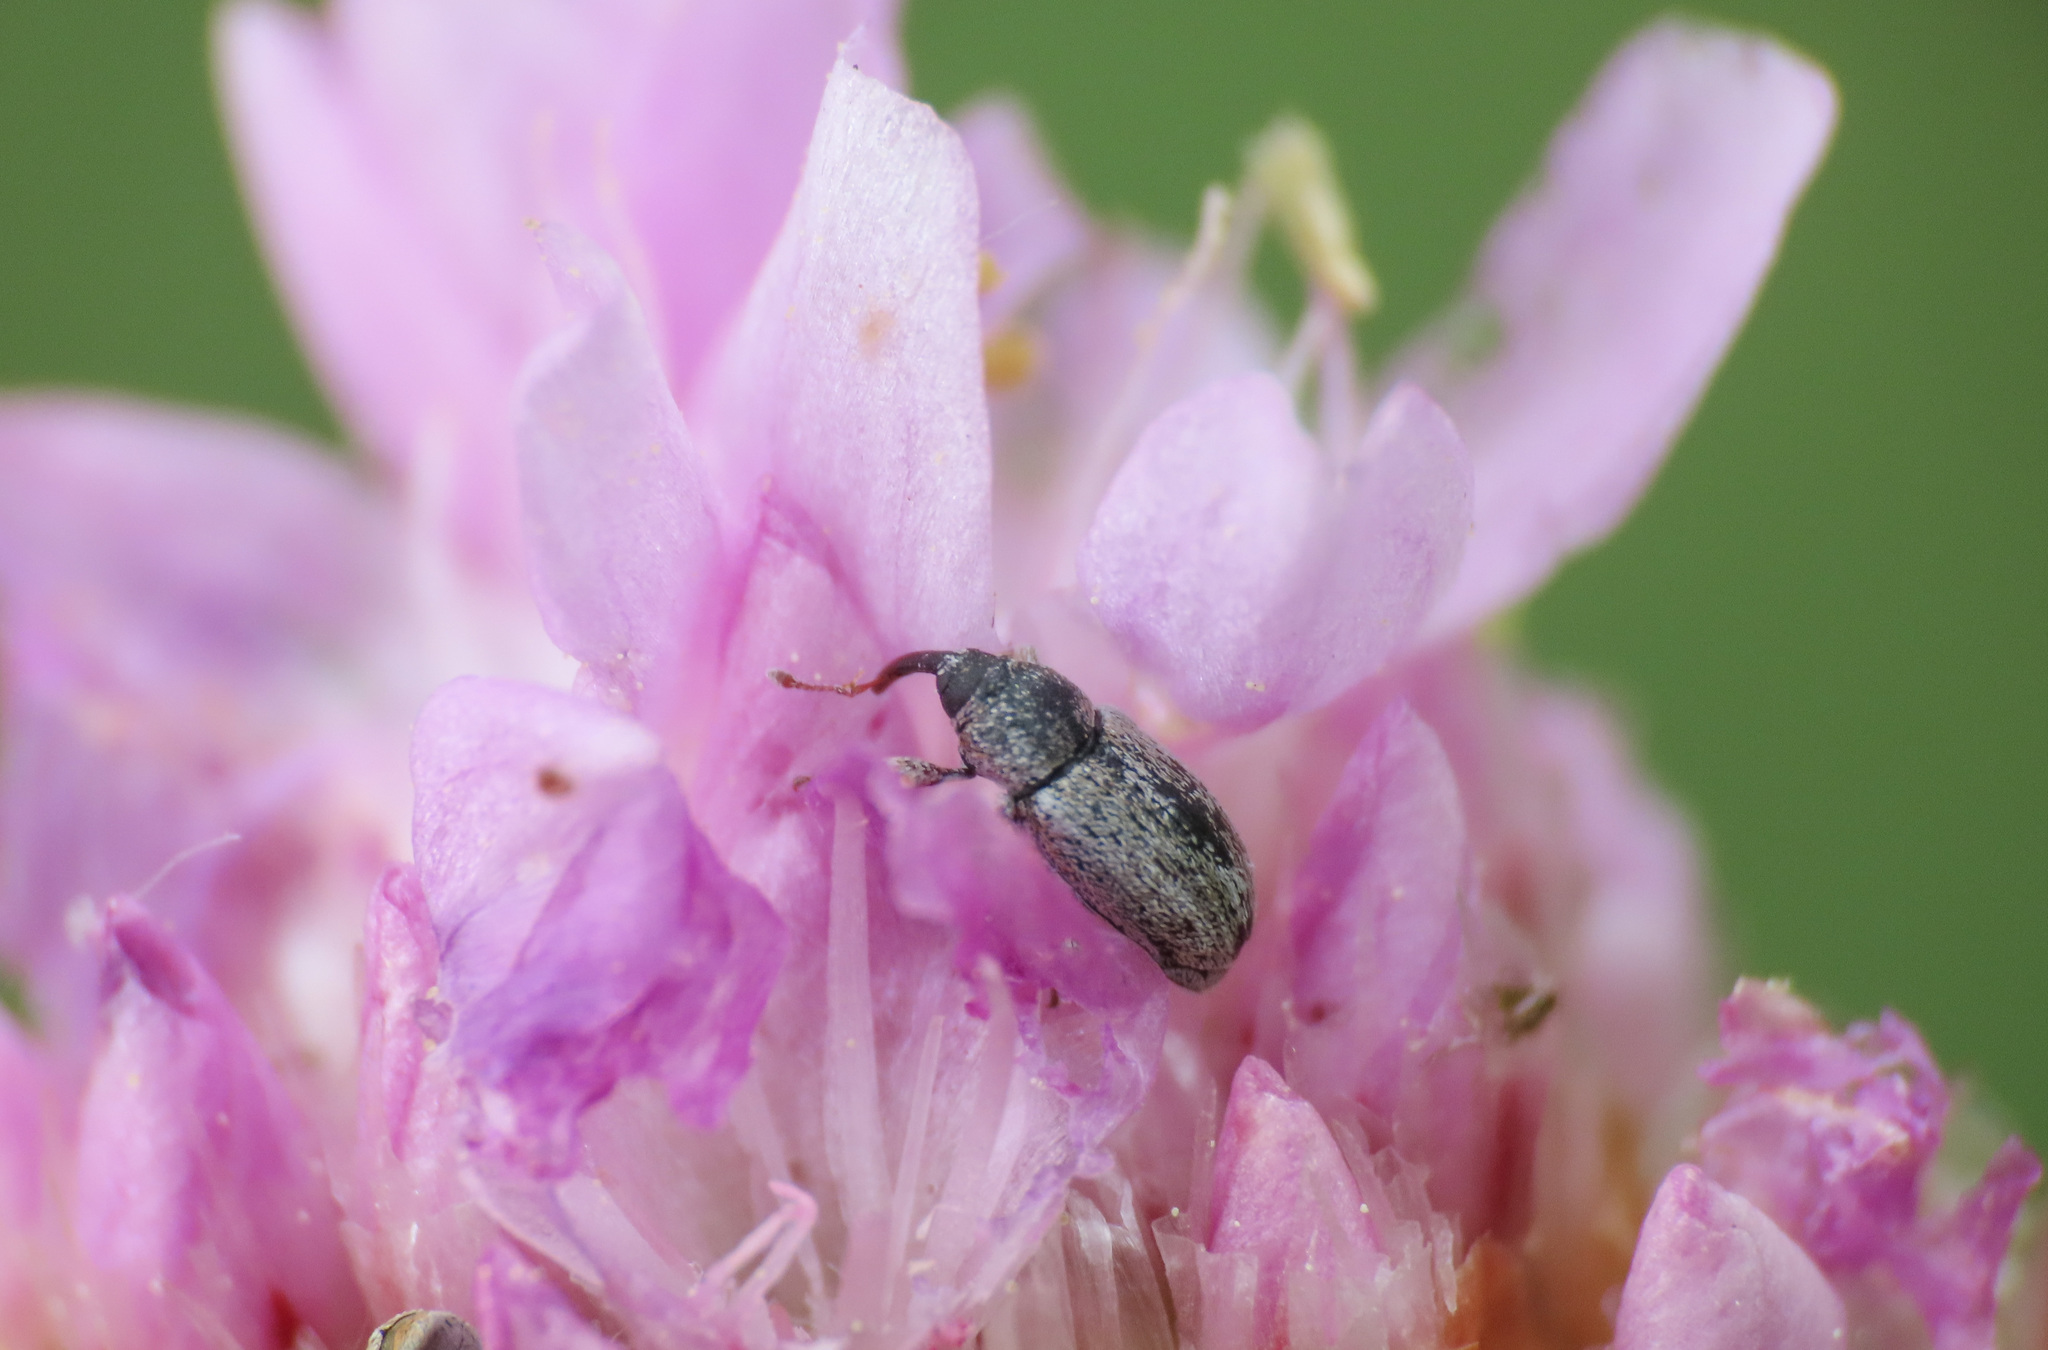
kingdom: Animalia
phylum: Arthropoda
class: Insecta
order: Coleoptera
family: Curculionidae
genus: Sibinia
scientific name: Sibinia sodalis
